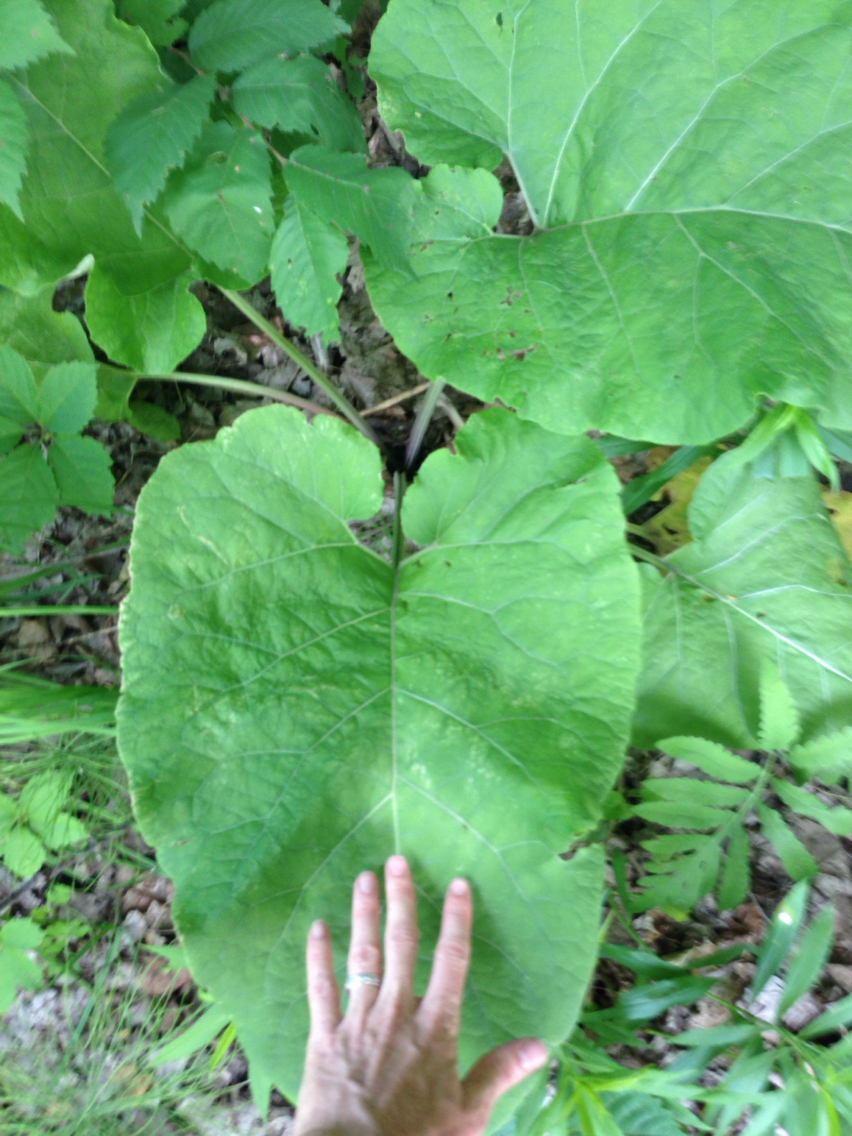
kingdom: Plantae
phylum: Tracheophyta
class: Magnoliopsida
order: Asterales
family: Asteraceae
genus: Arctium
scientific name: Arctium lappa
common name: Greater burdock
